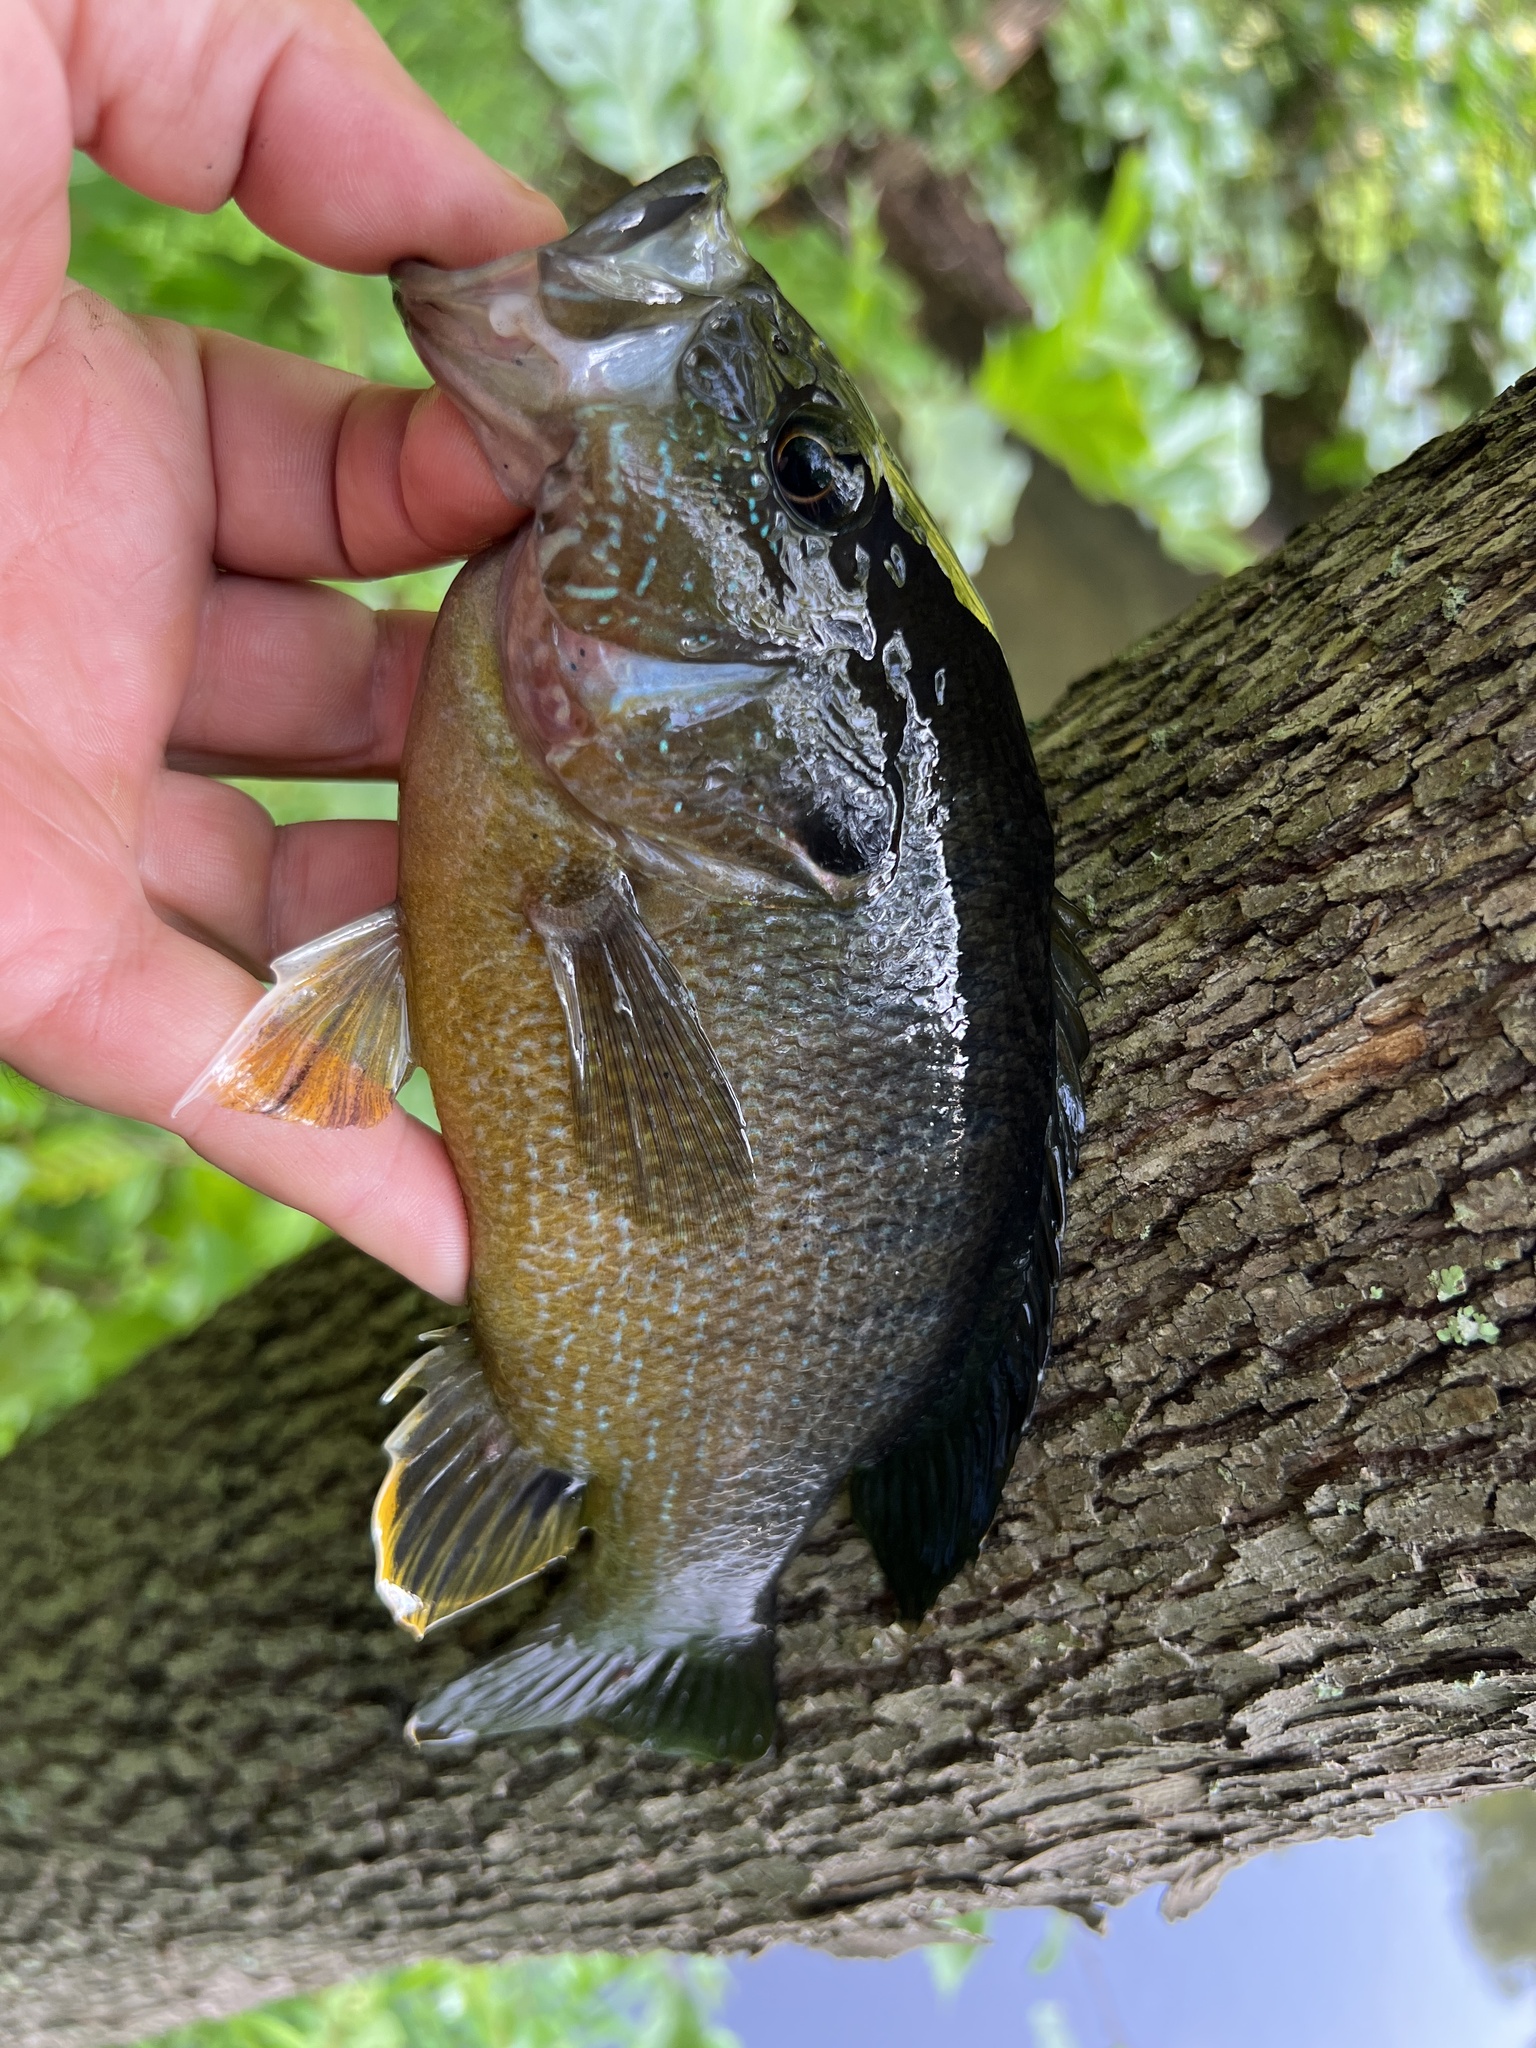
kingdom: Animalia
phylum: Chordata
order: Perciformes
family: Centrarchidae
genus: Lepomis
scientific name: Lepomis cyanellus
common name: Green sunfish
